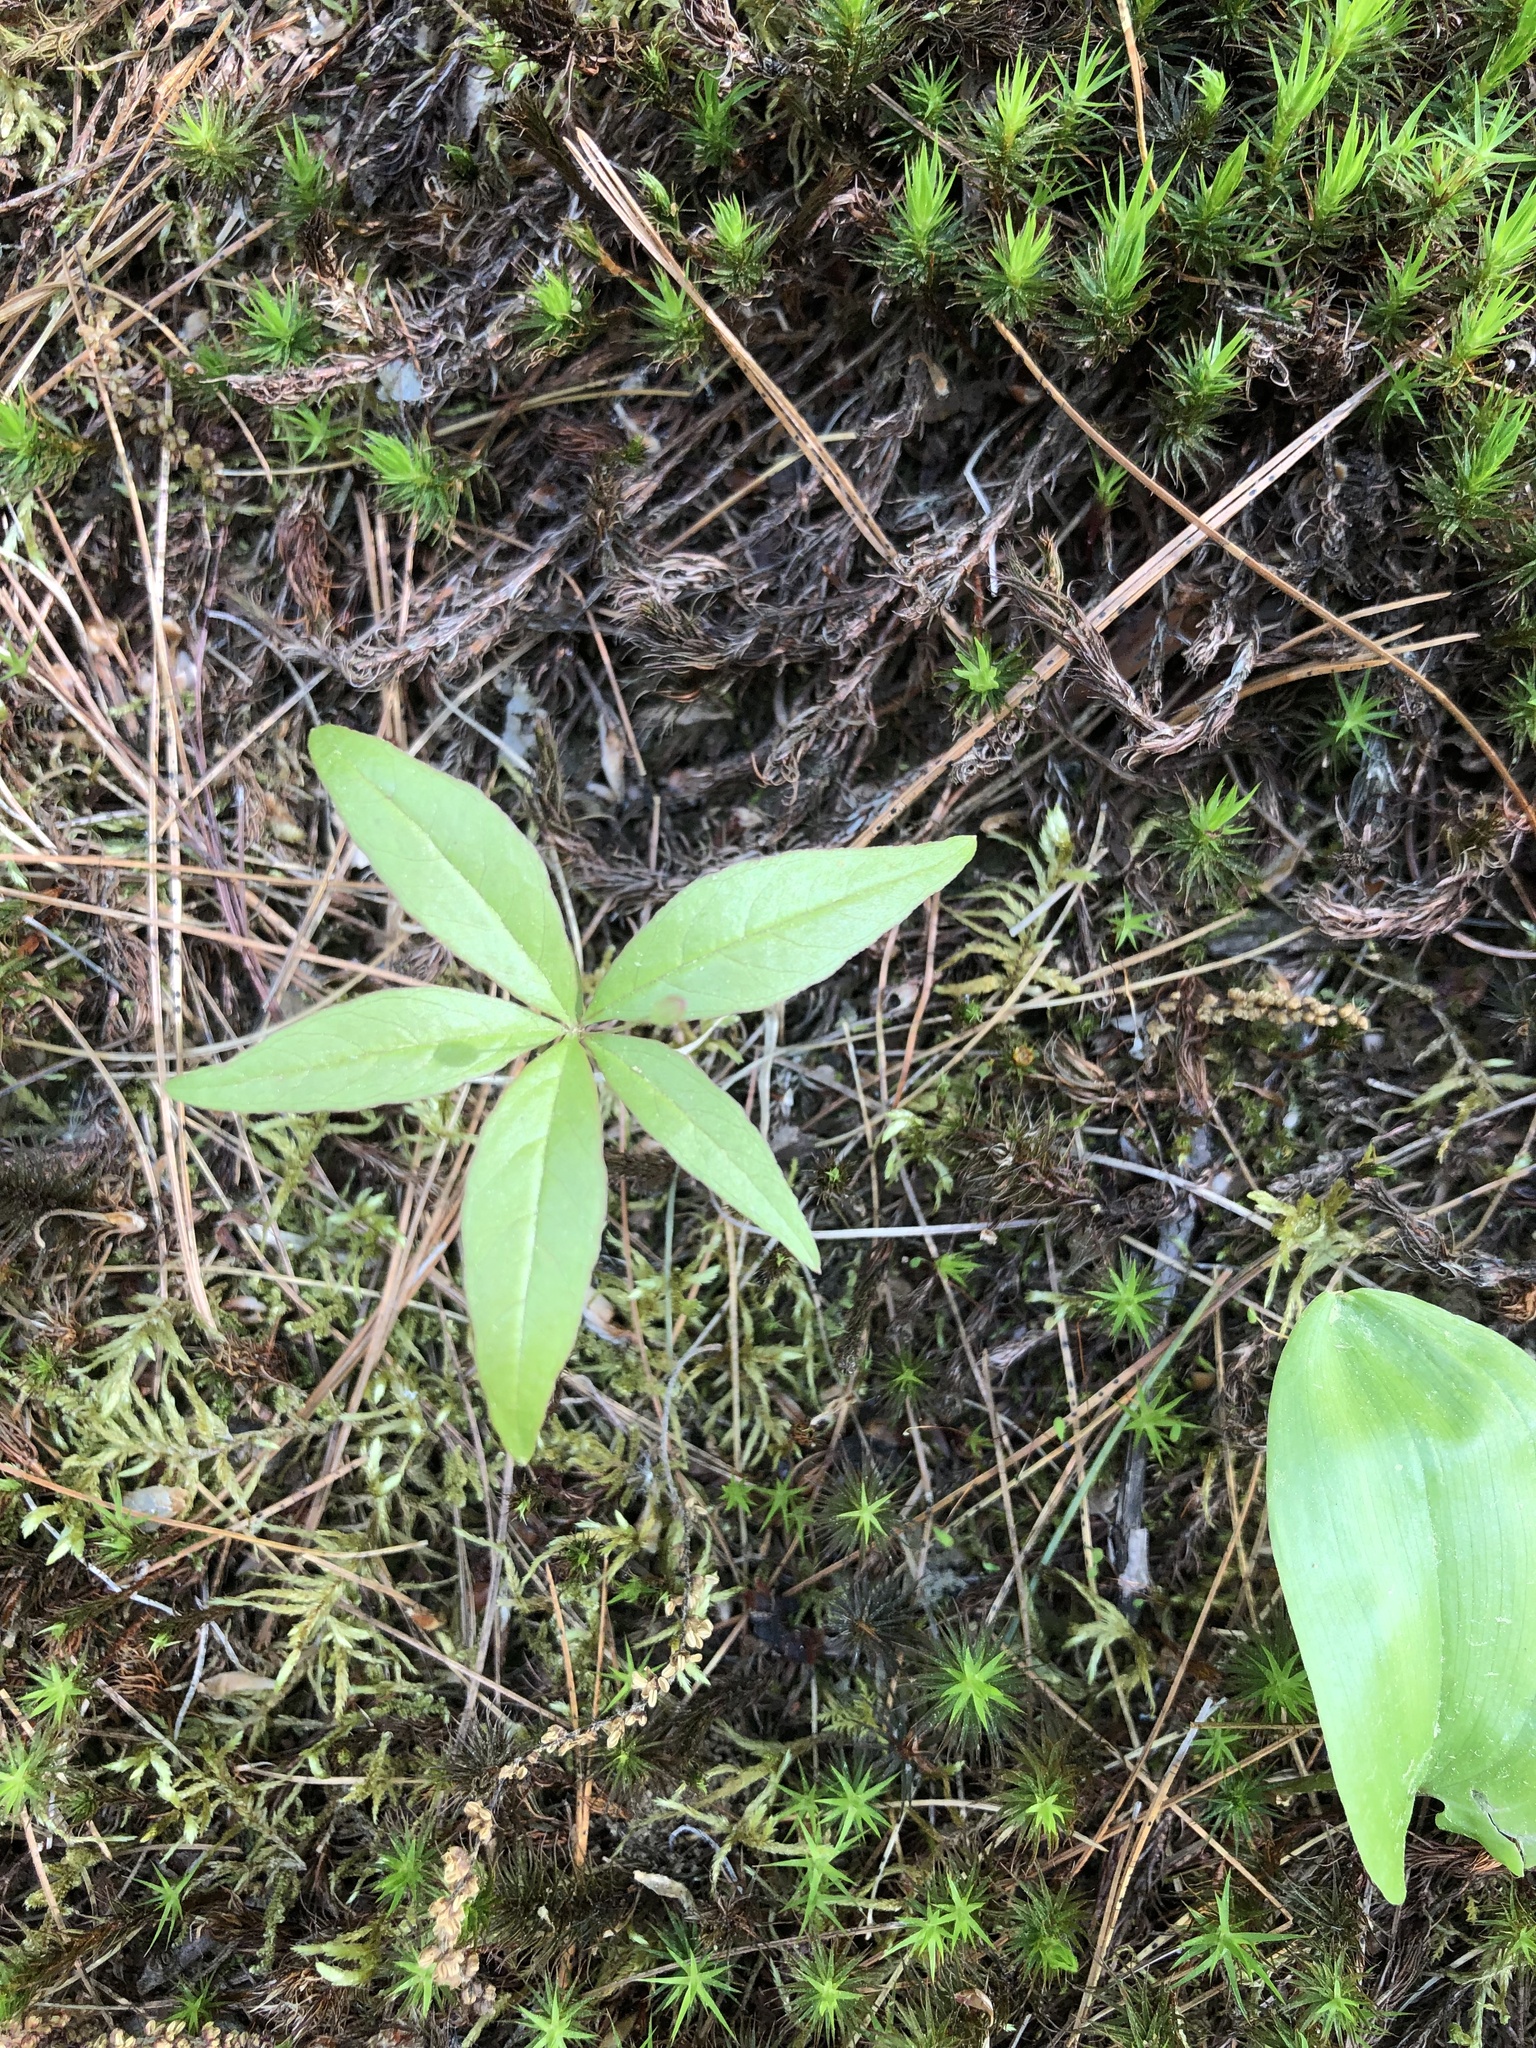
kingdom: Plantae
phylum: Tracheophyta
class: Magnoliopsida
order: Ericales
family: Primulaceae
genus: Lysimachia
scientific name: Lysimachia borealis
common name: American starflower
